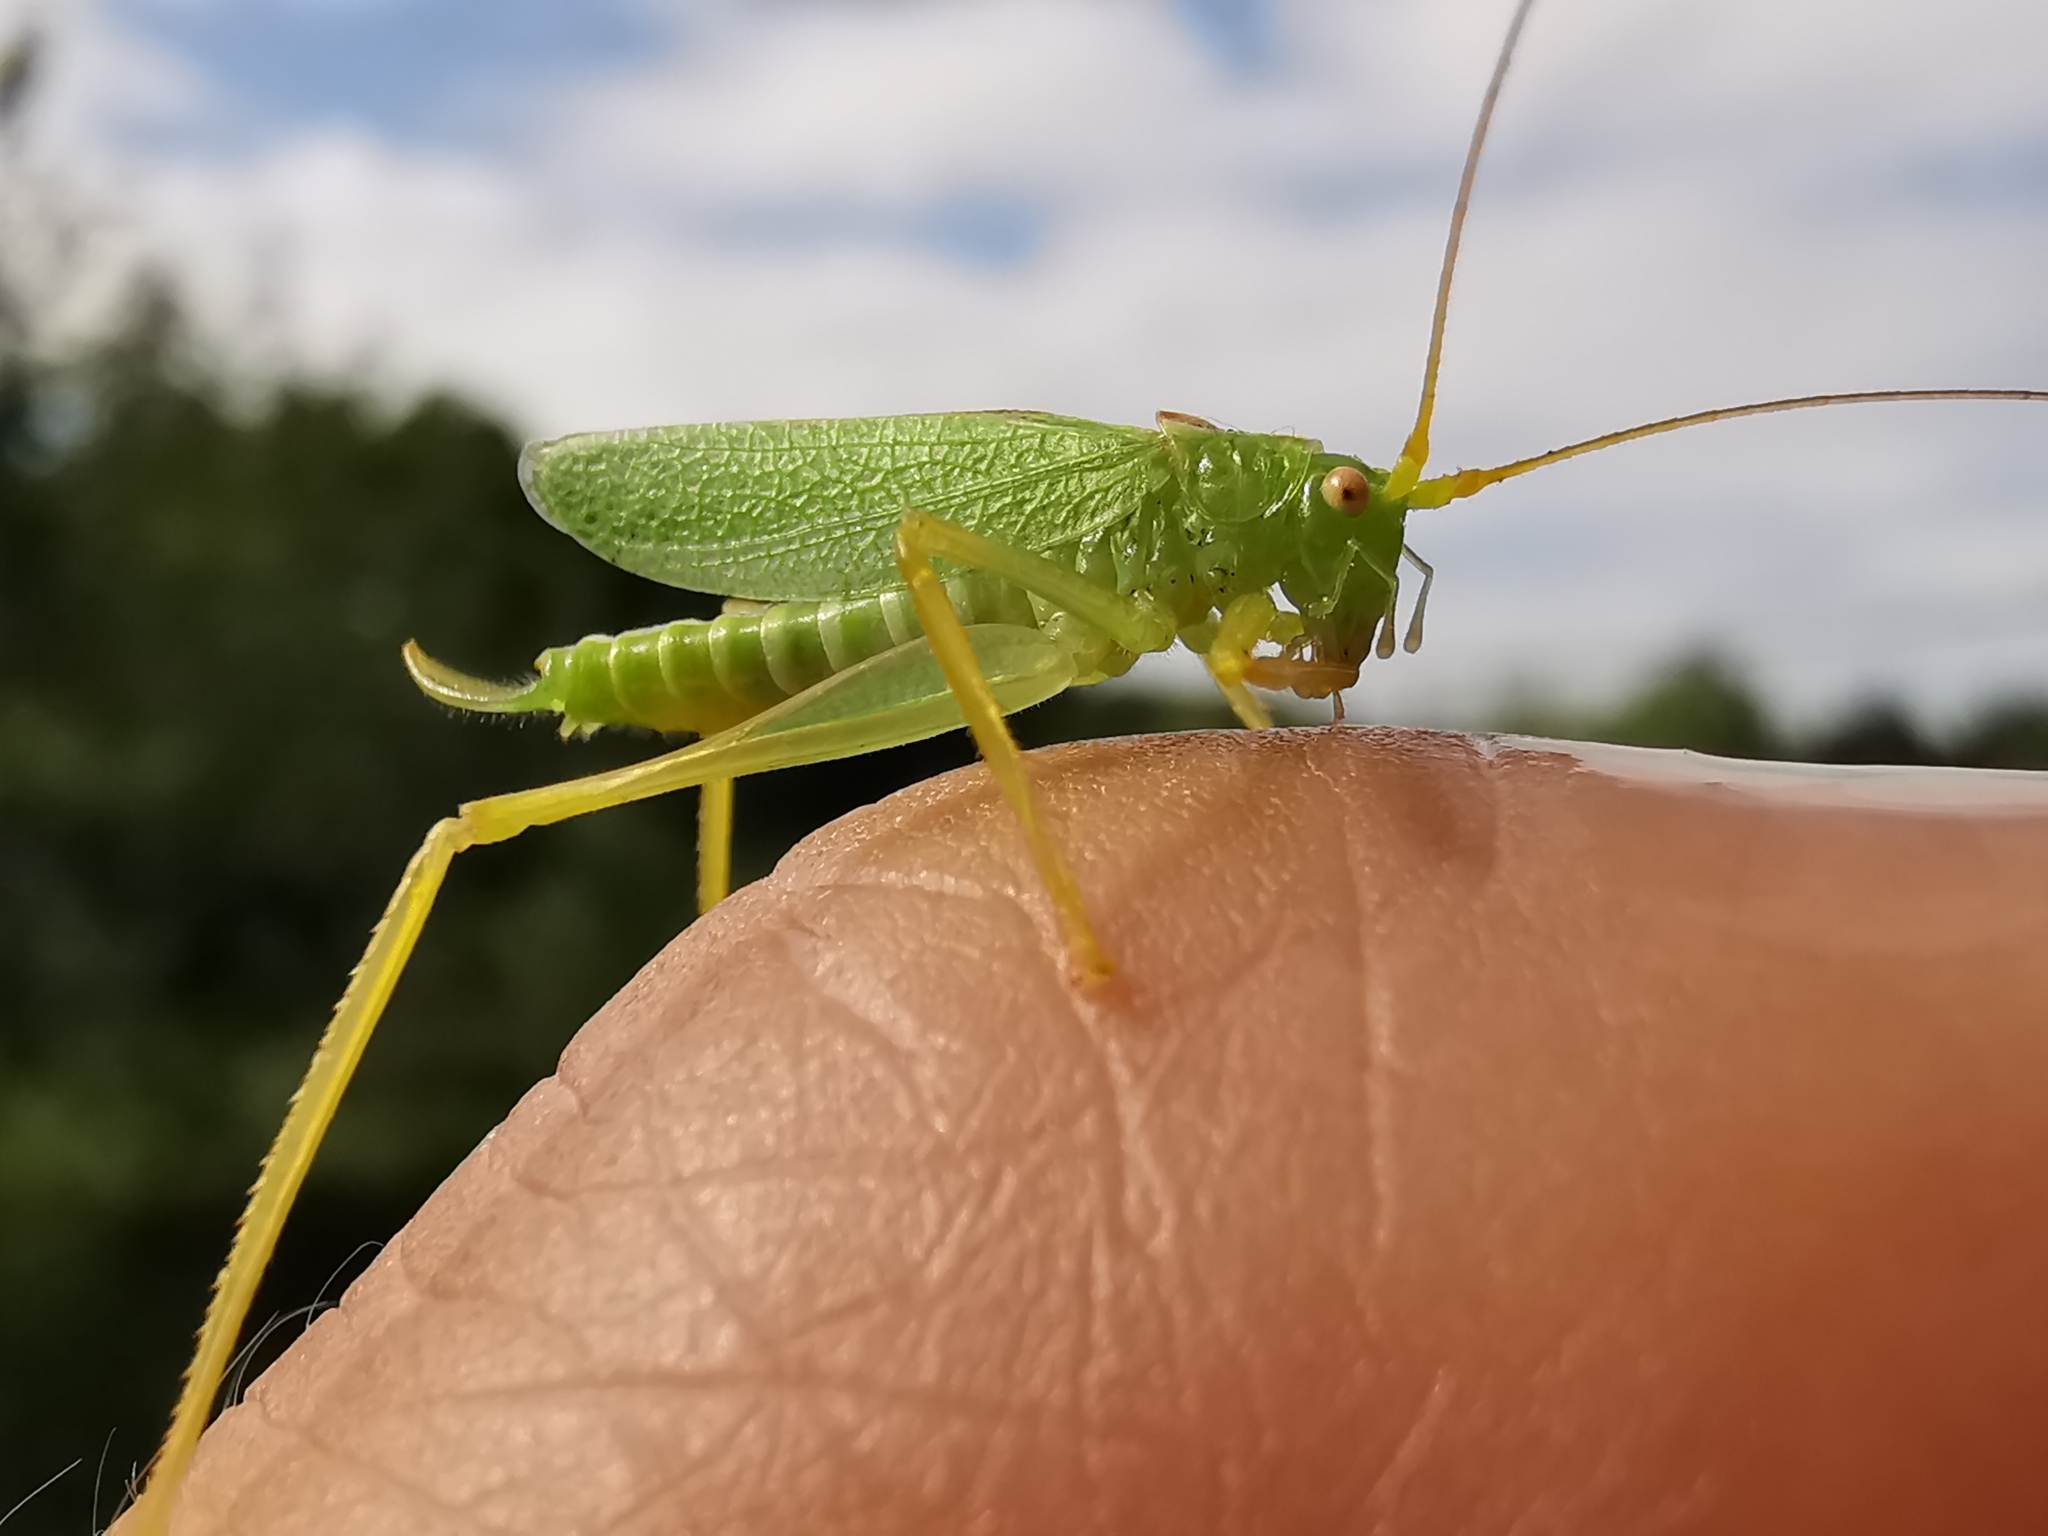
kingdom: Animalia
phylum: Arthropoda
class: Insecta
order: Orthoptera
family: Tettigoniidae
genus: Meconema
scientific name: Meconema thalassinum
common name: Oak bush-cricket
